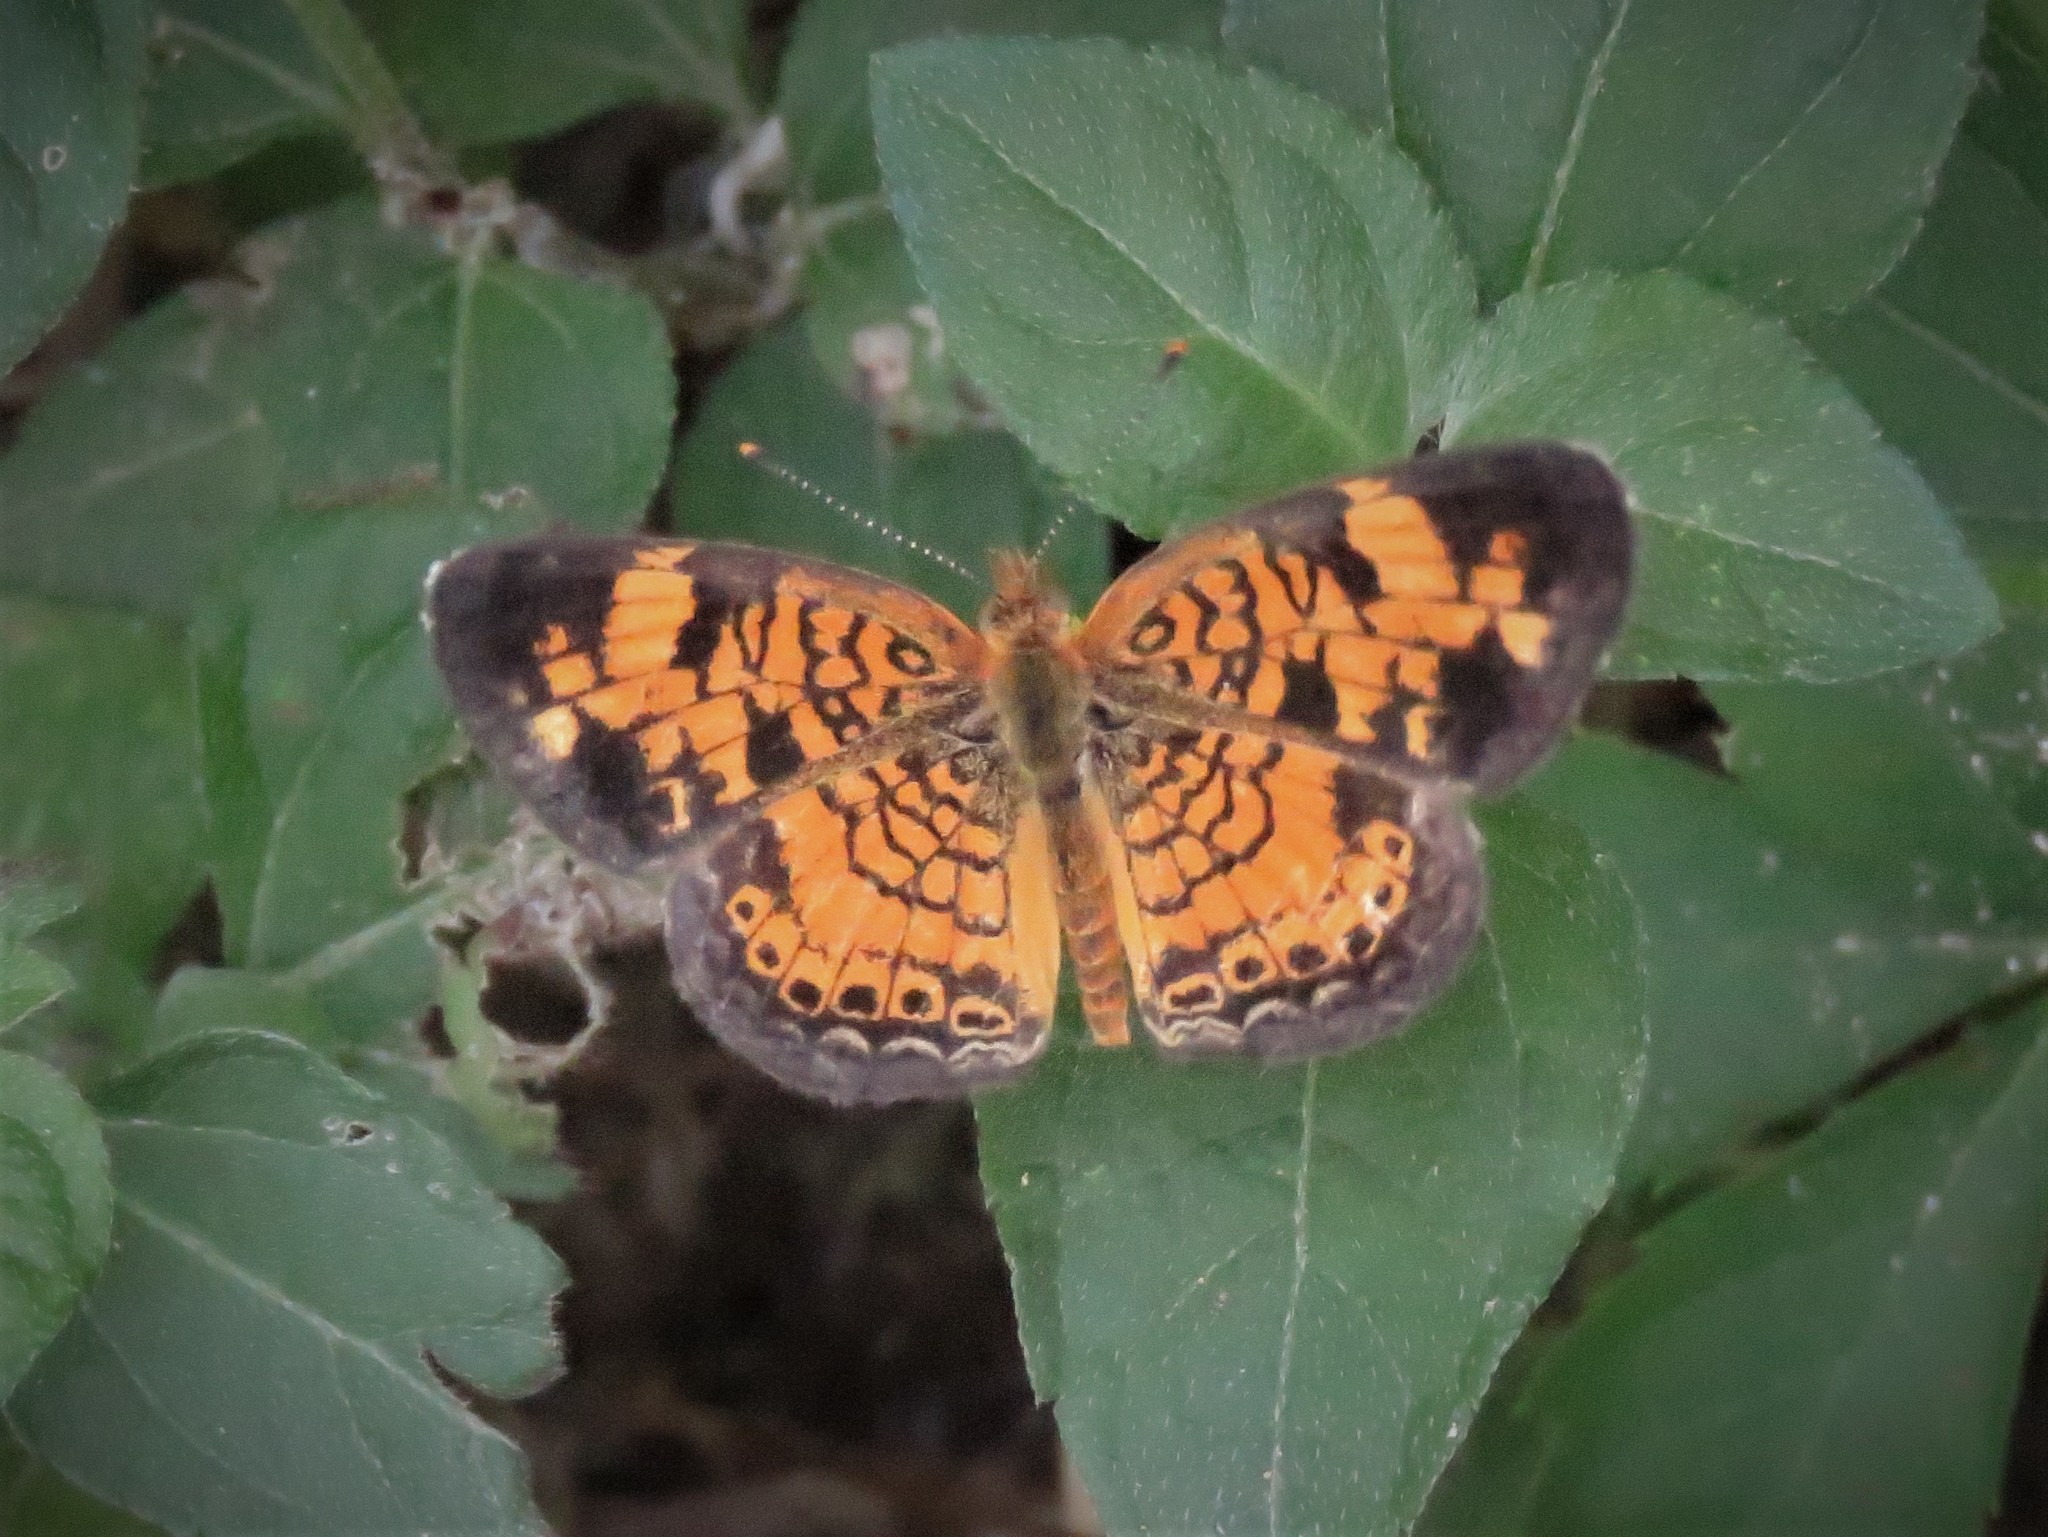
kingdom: Animalia
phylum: Arthropoda
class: Insecta
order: Lepidoptera
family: Nymphalidae
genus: Phyciodes
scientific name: Phyciodes tharos
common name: Pearl crescent
